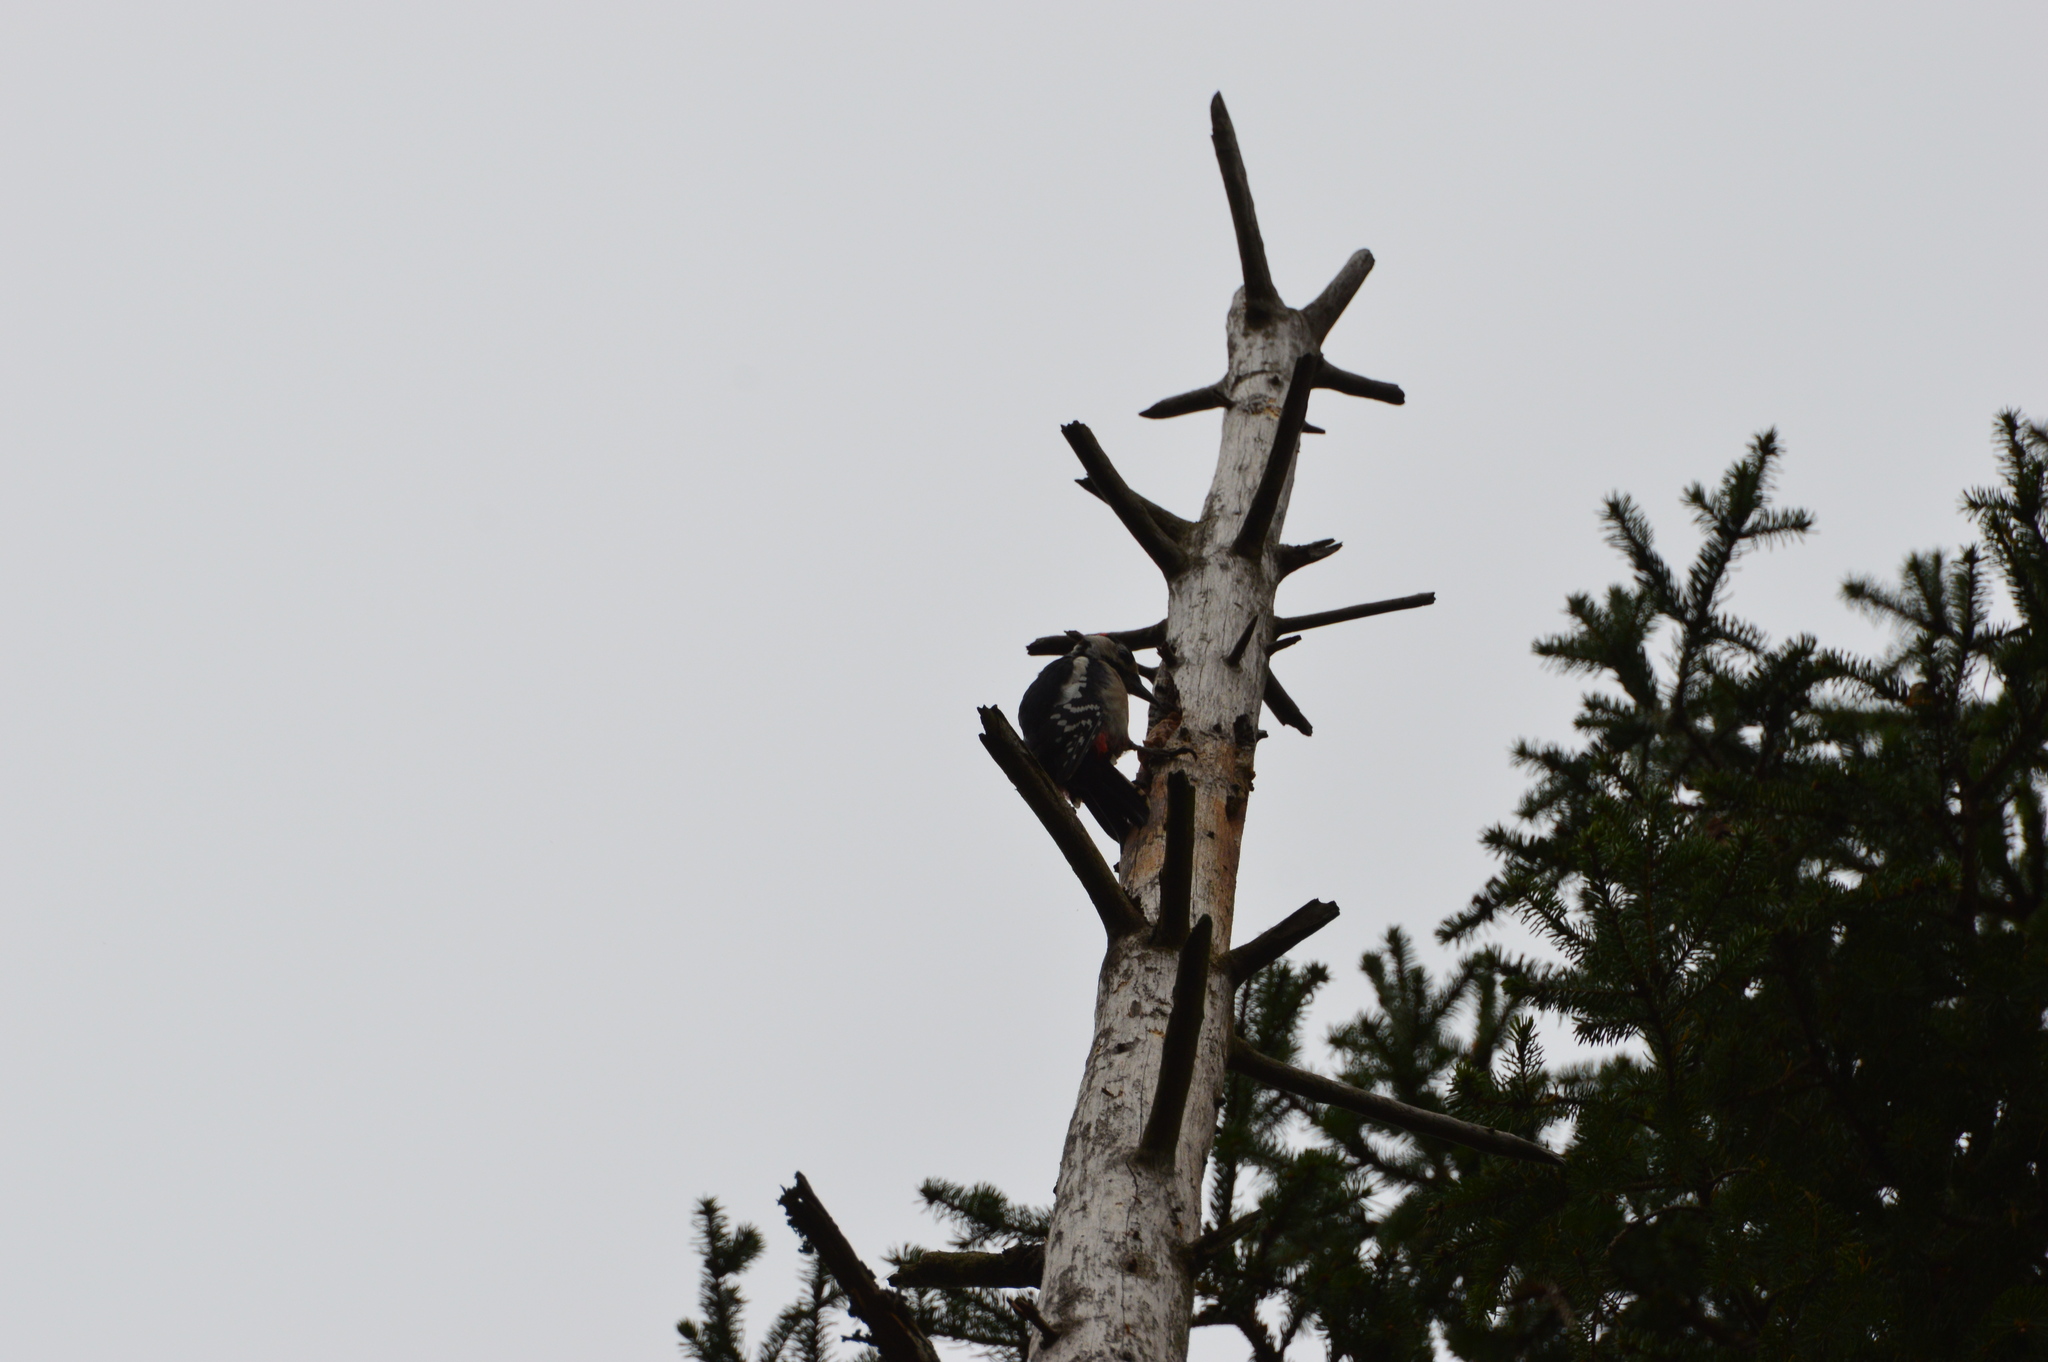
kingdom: Animalia
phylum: Chordata
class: Aves
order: Piciformes
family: Picidae
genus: Dendrocopos
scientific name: Dendrocopos major
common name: Great spotted woodpecker
